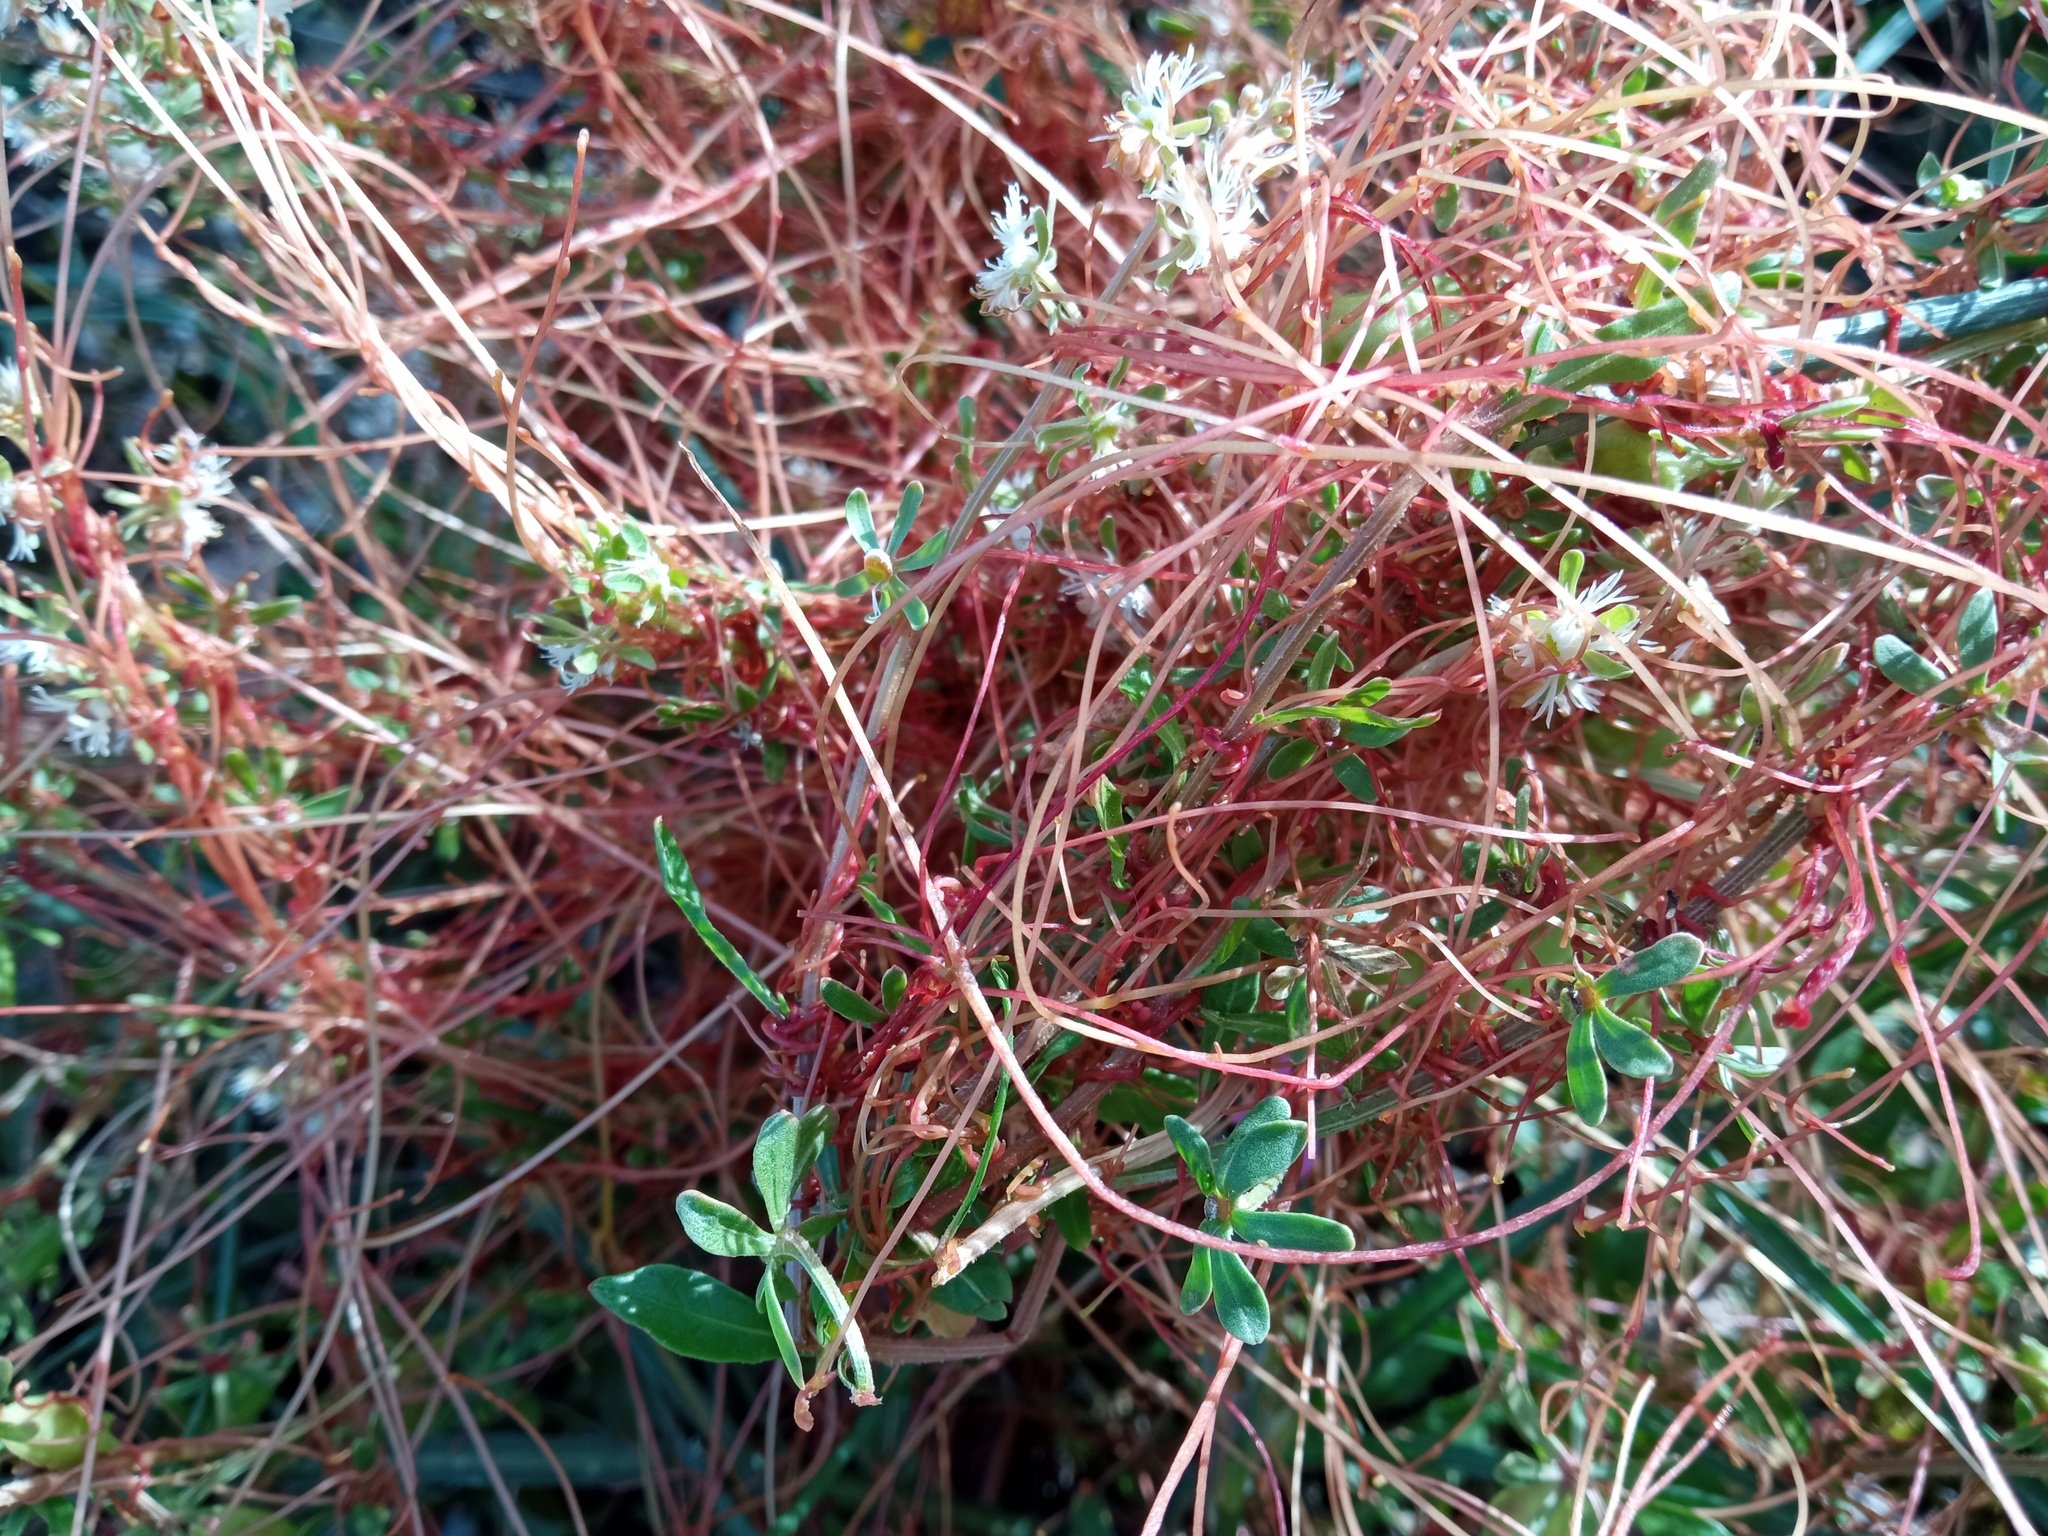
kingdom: Plantae
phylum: Tracheophyta
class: Magnoliopsida
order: Solanales
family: Convolvulaceae
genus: Cuscuta
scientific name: Cuscuta epithymum
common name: Clover dodder
